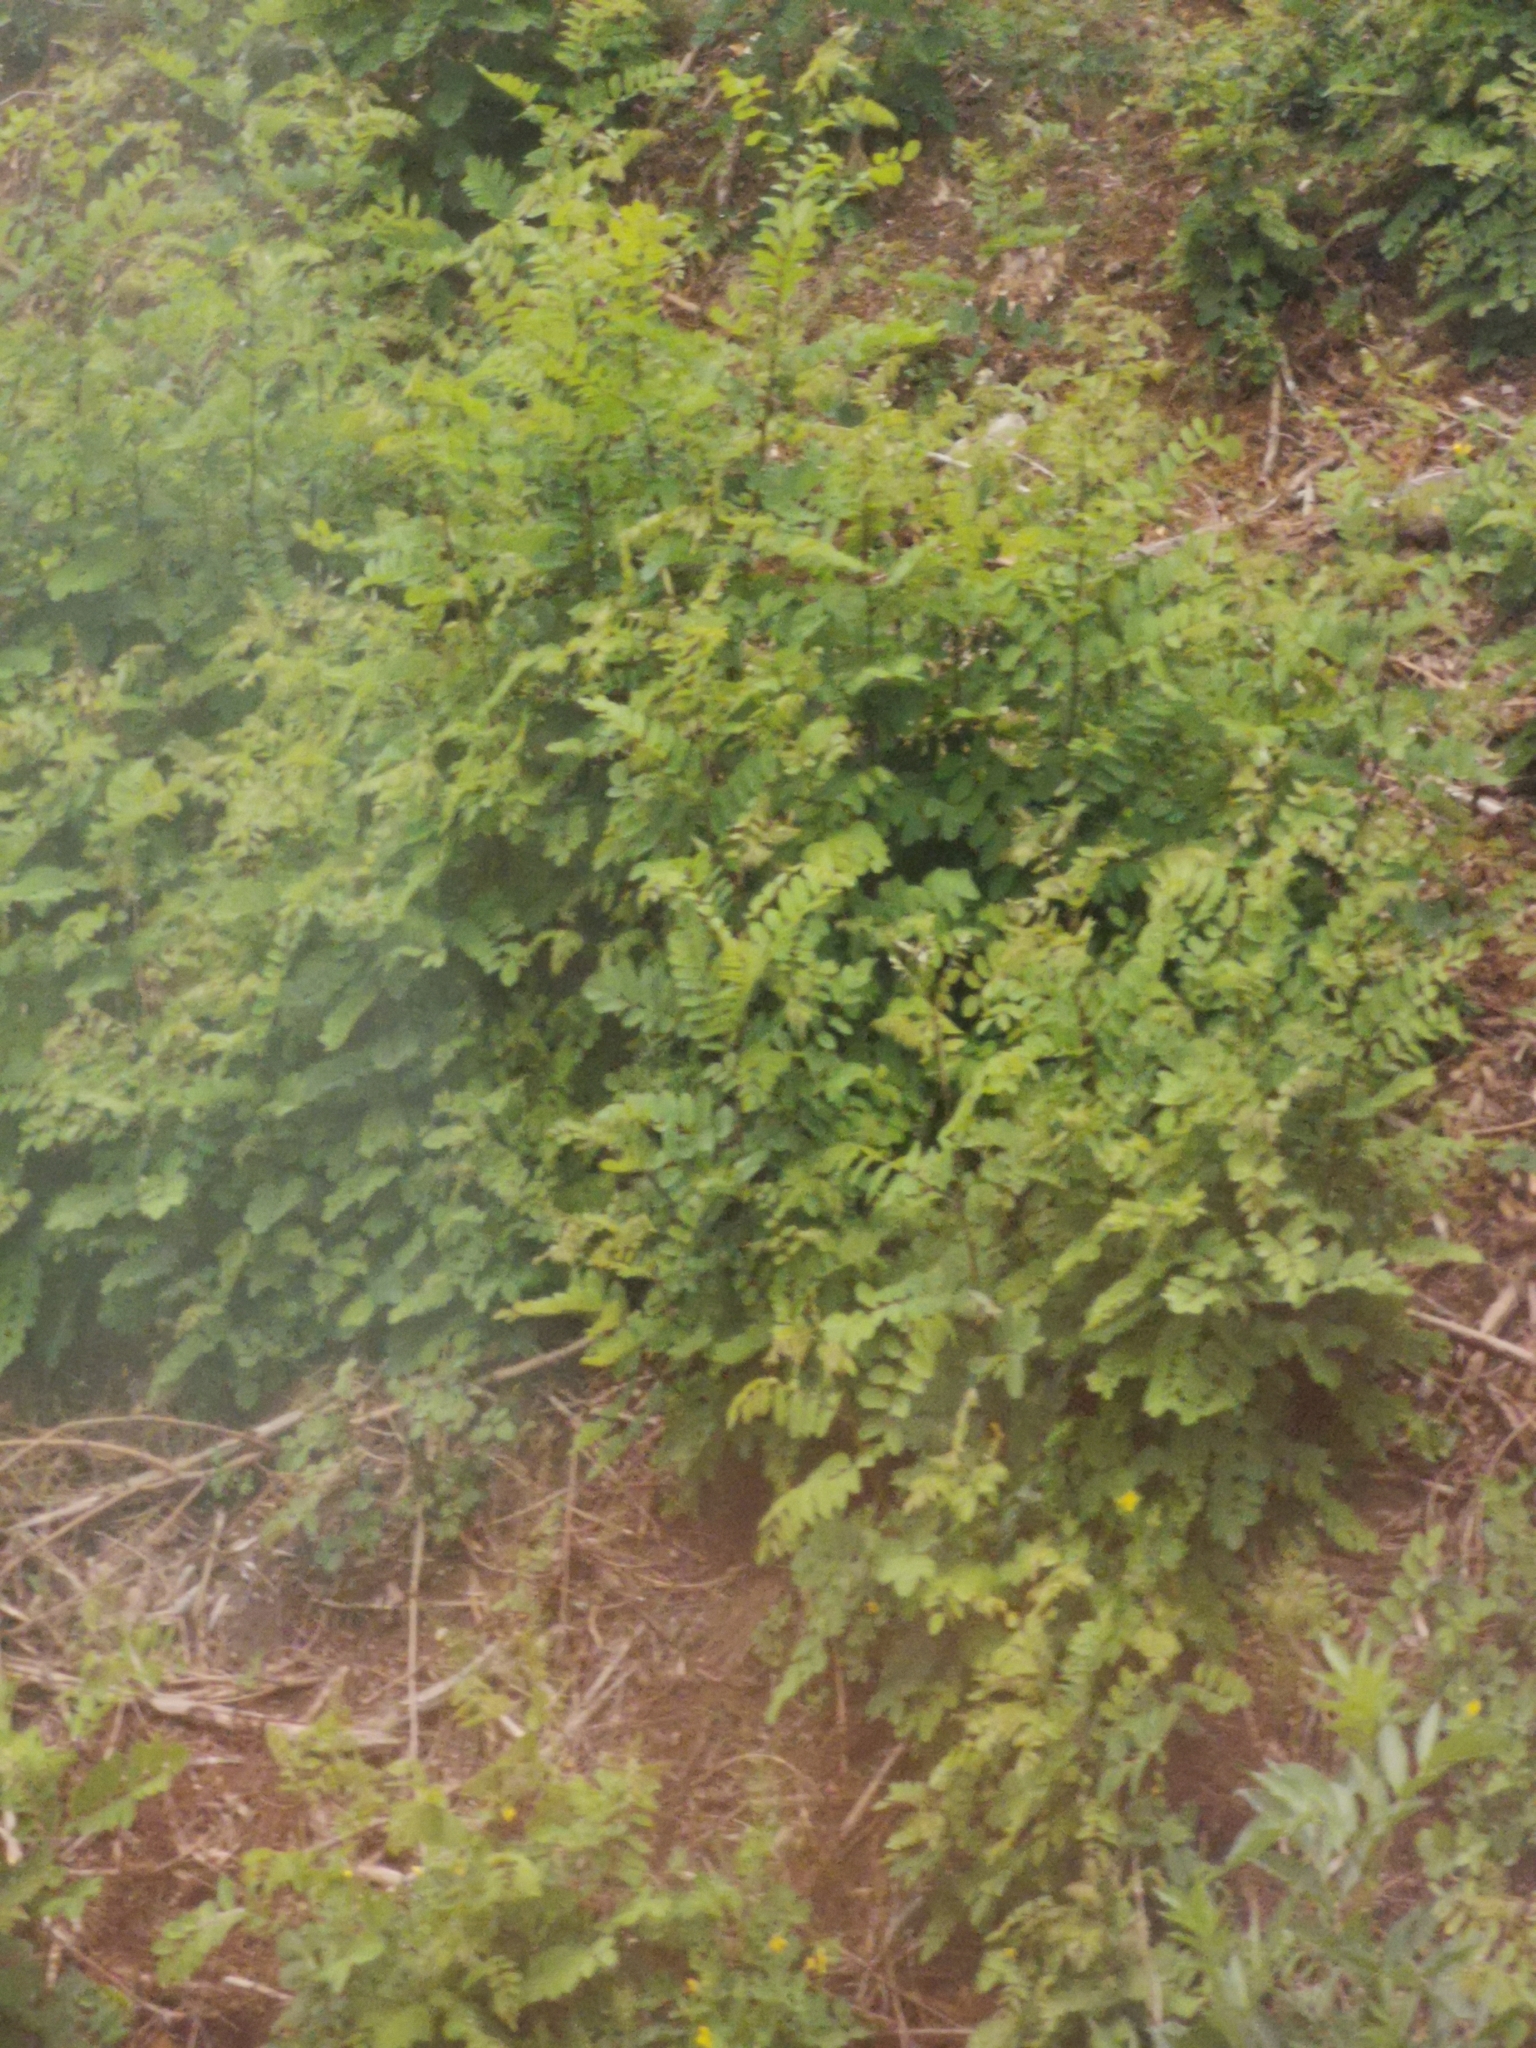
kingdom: Plantae
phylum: Tracheophyta
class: Magnoliopsida
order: Fabales
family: Fabaceae
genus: Robinia
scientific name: Robinia pseudoacacia
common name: Black locust
